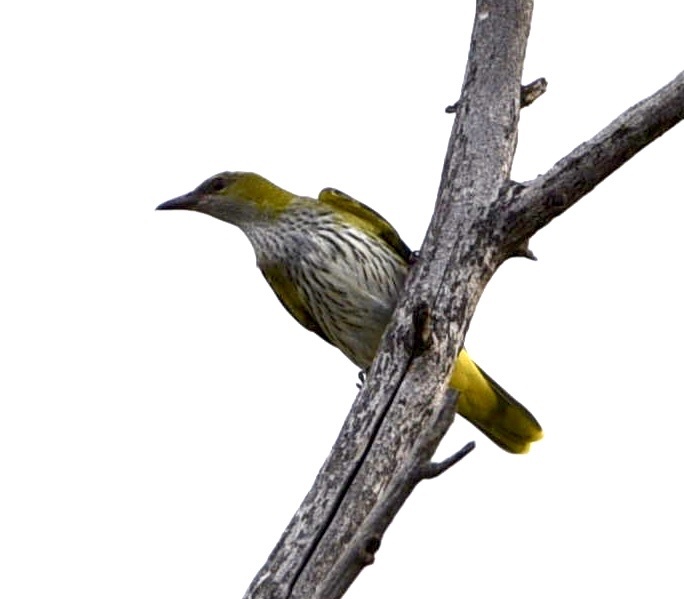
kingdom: Animalia
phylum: Chordata
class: Aves
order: Passeriformes
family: Oriolidae
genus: Oriolus
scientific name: Oriolus oriolus
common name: Eurasian golden oriole
